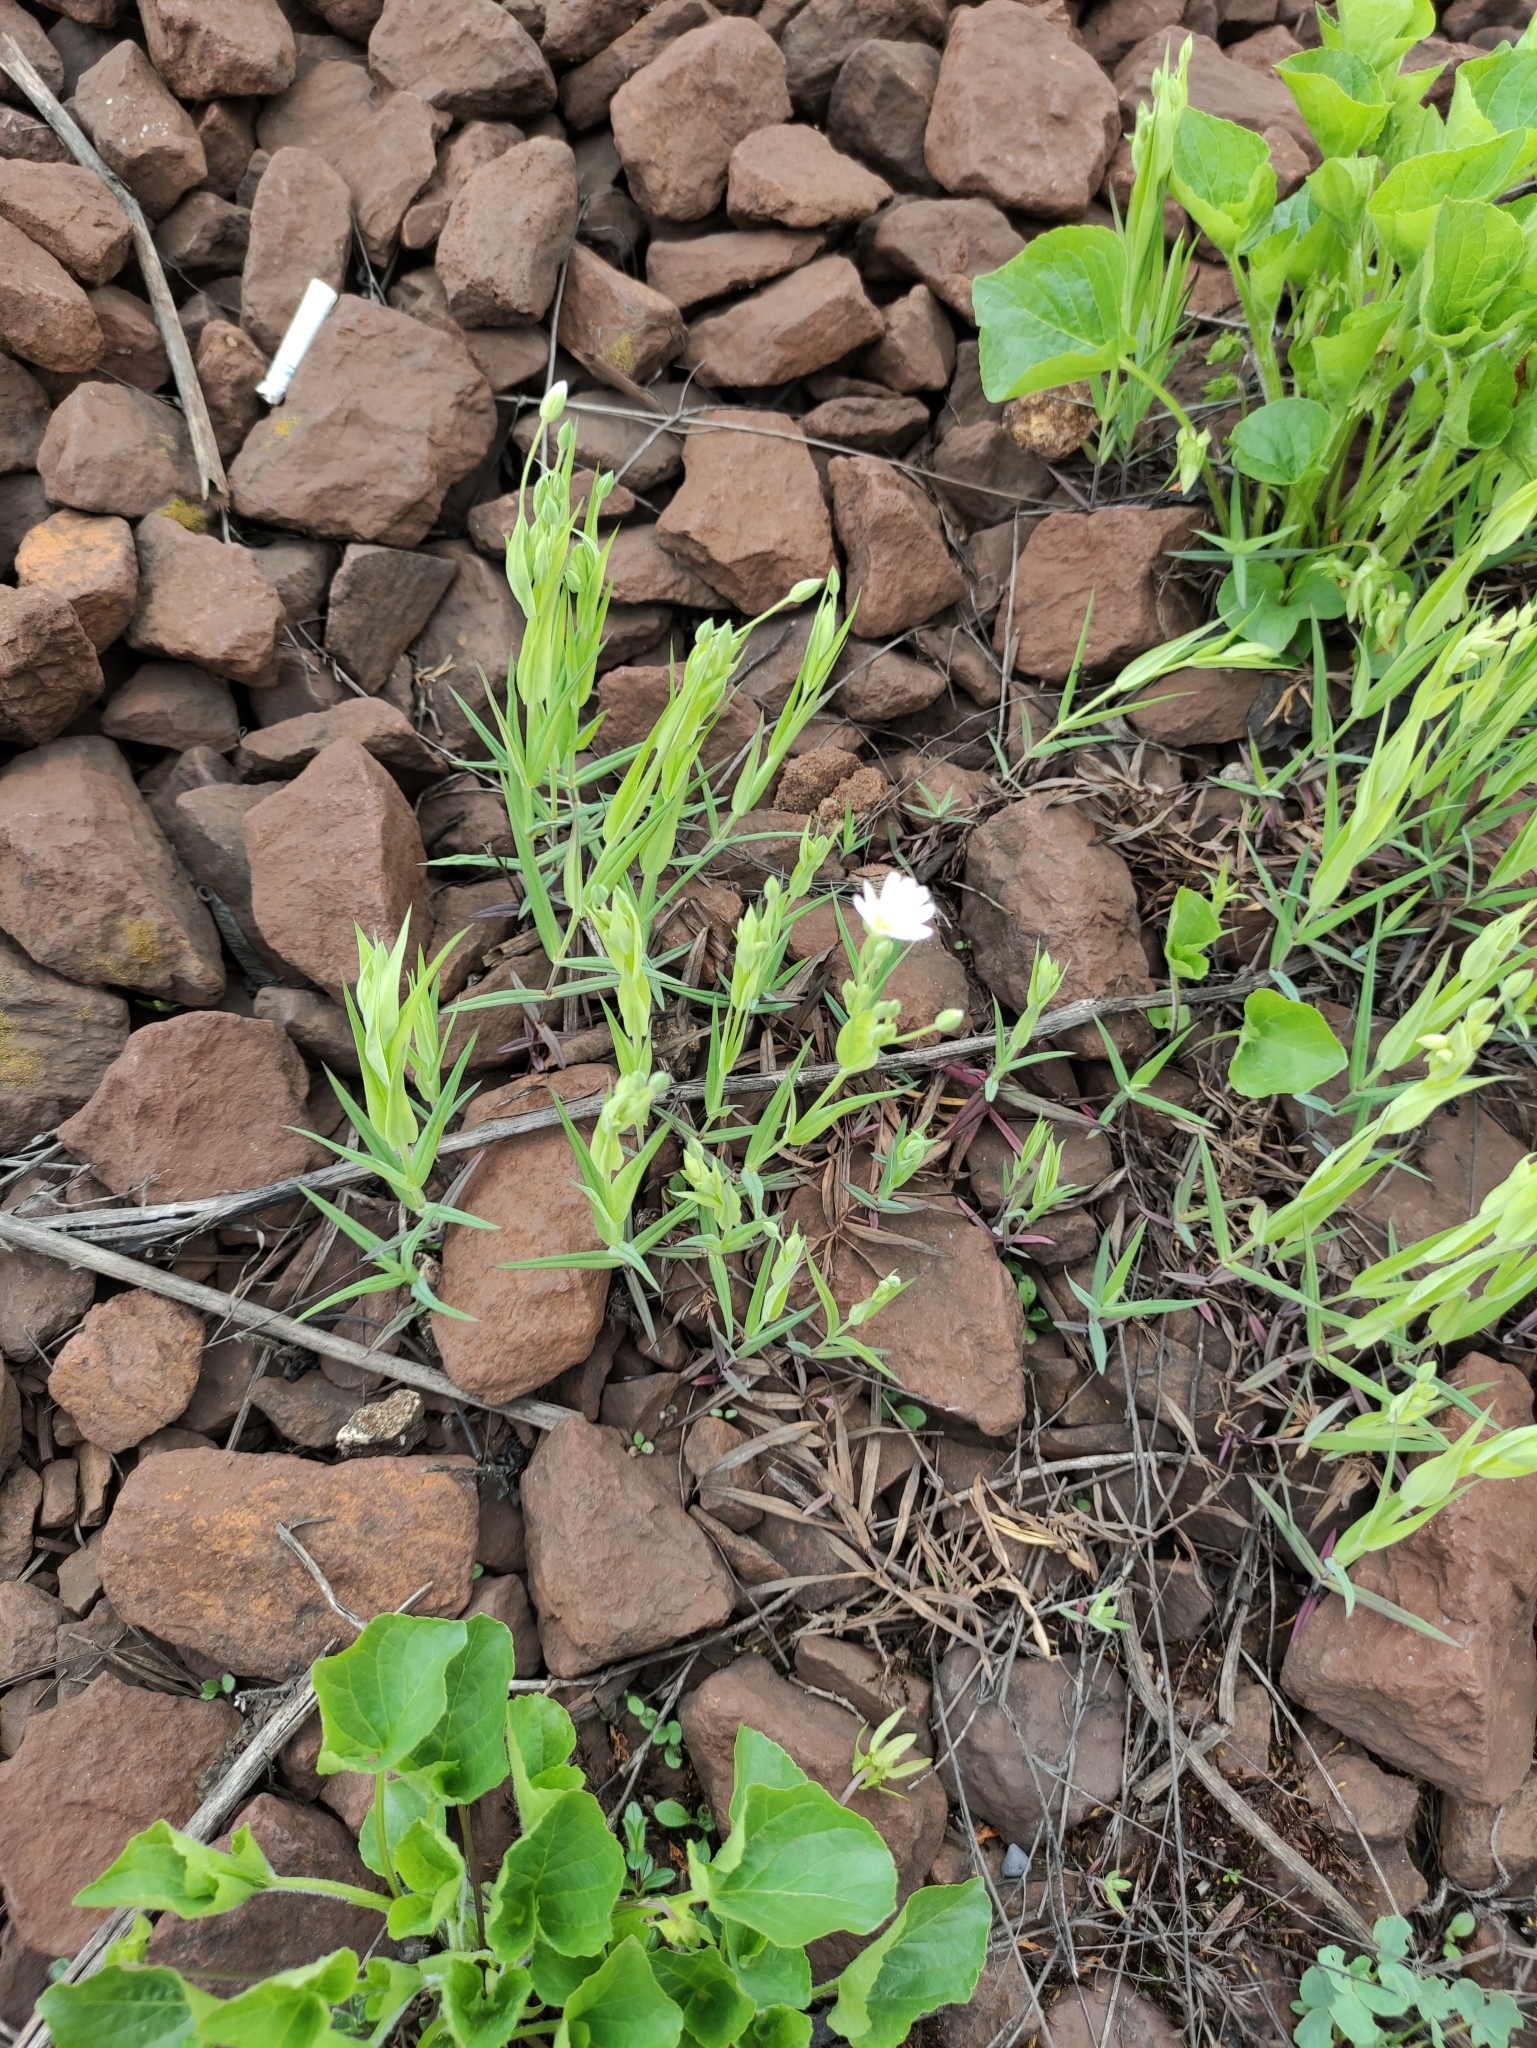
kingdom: Plantae
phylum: Tracheophyta
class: Magnoliopsida
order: Caryophyllales
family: Caryophyllaceae
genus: Rabelera
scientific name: Rabelera holostea
